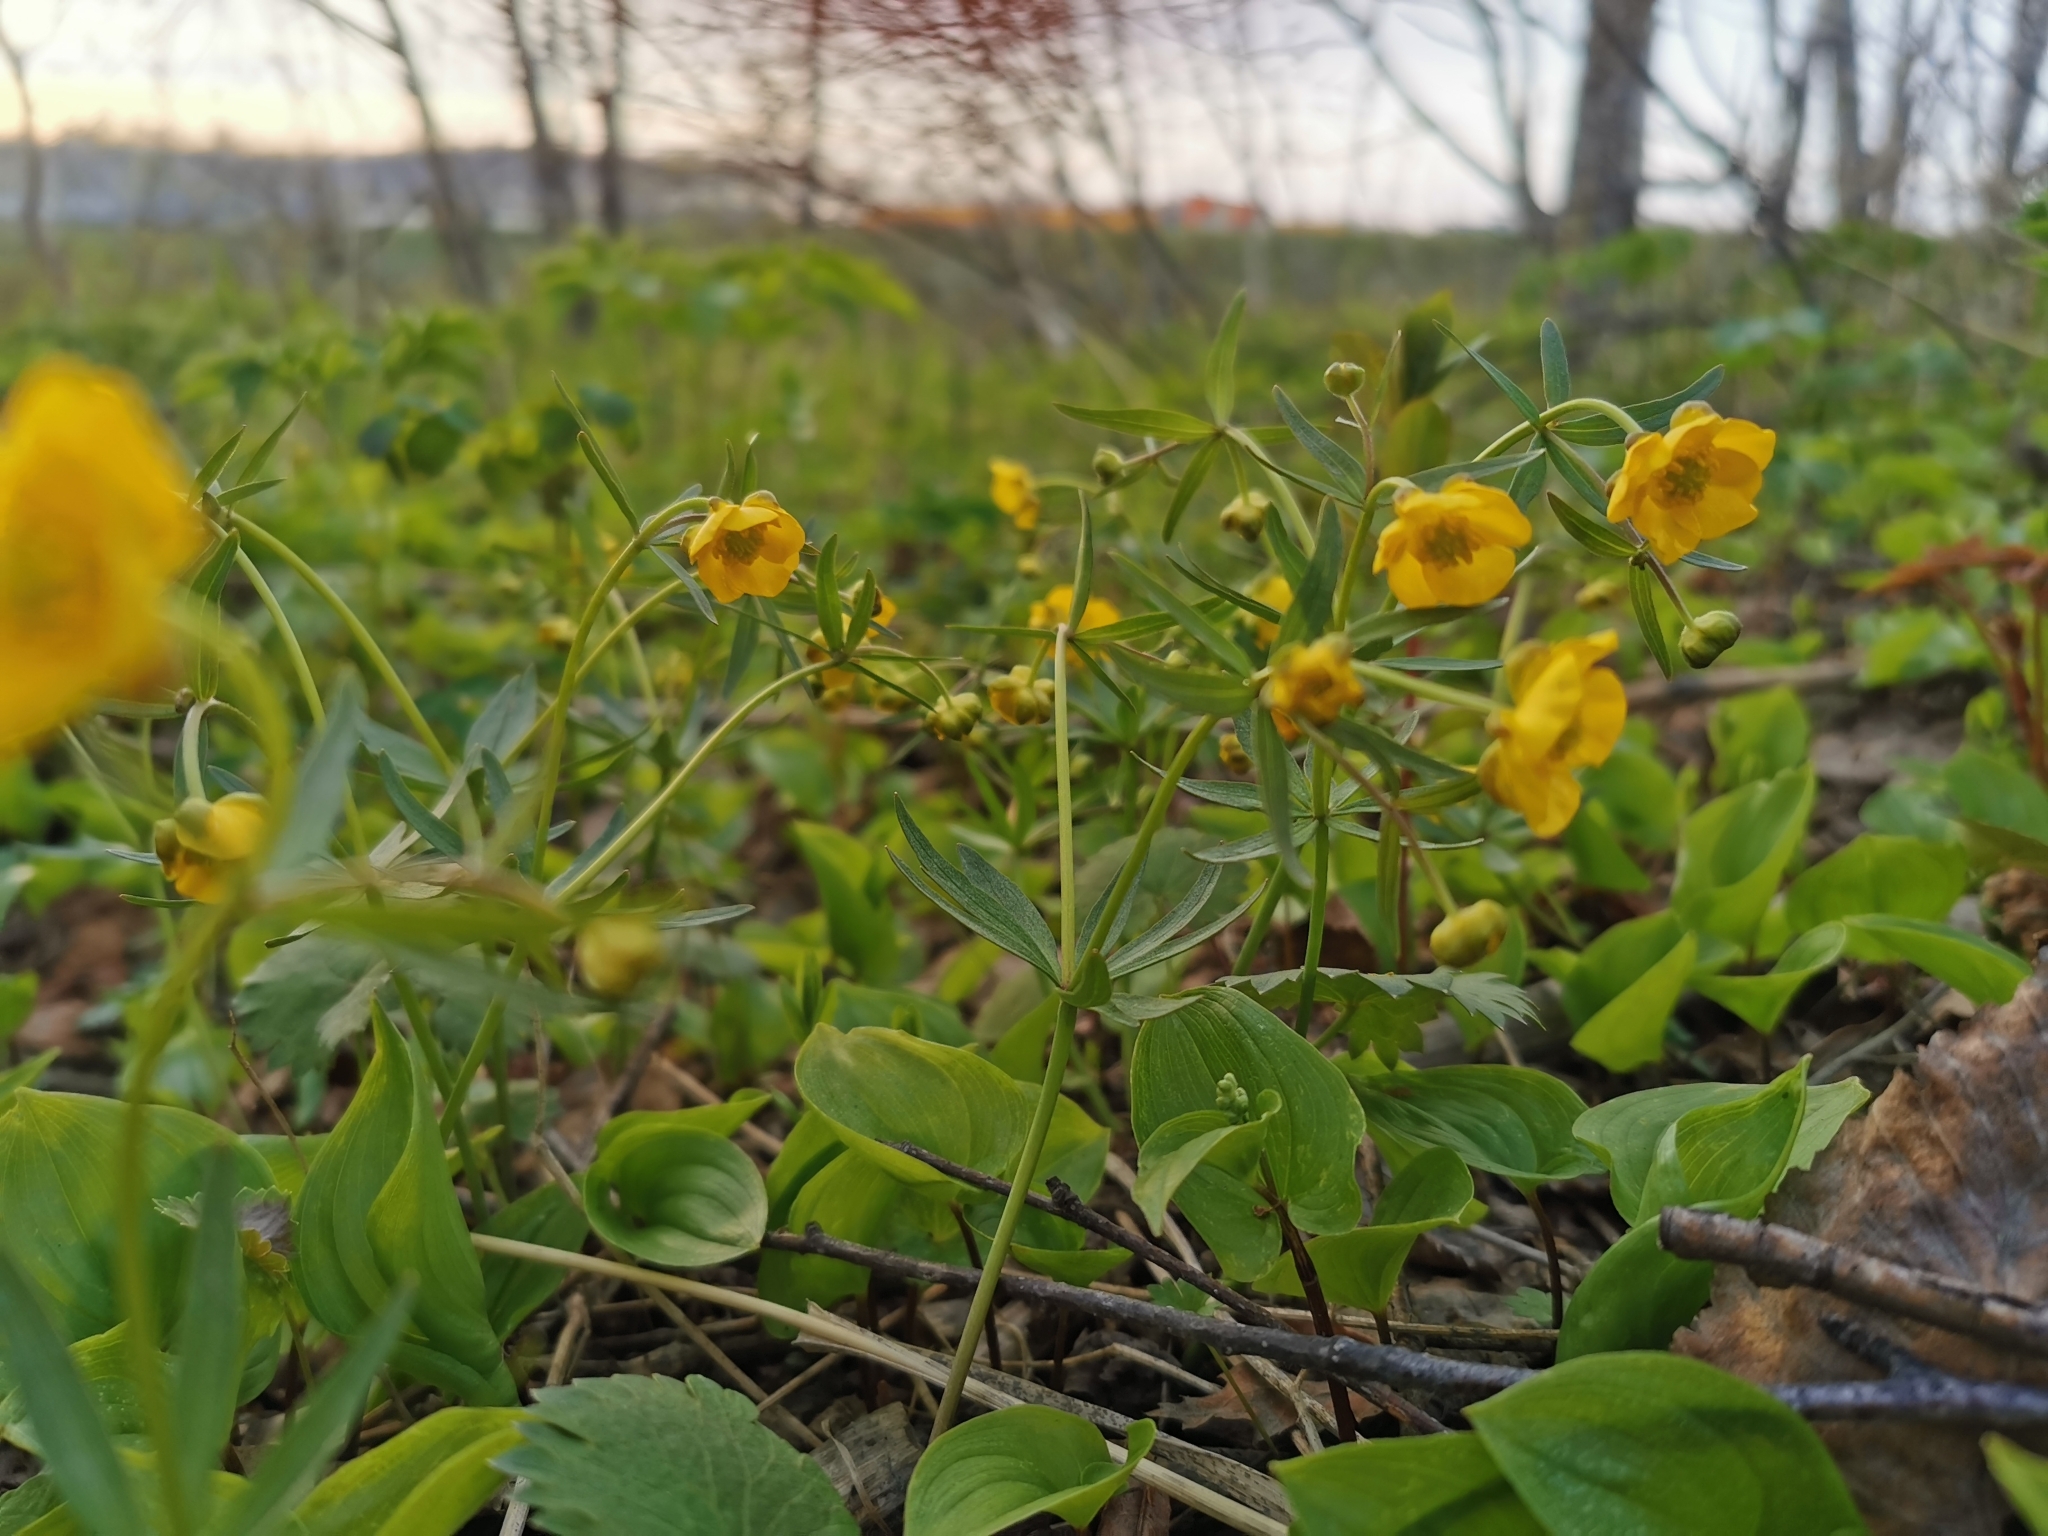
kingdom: Plantae
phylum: Tracheophyta
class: Magnoliopsida
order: Ranunculales
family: Ranunculaceae
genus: Ranunculus
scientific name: Ranunculus monophyllus
